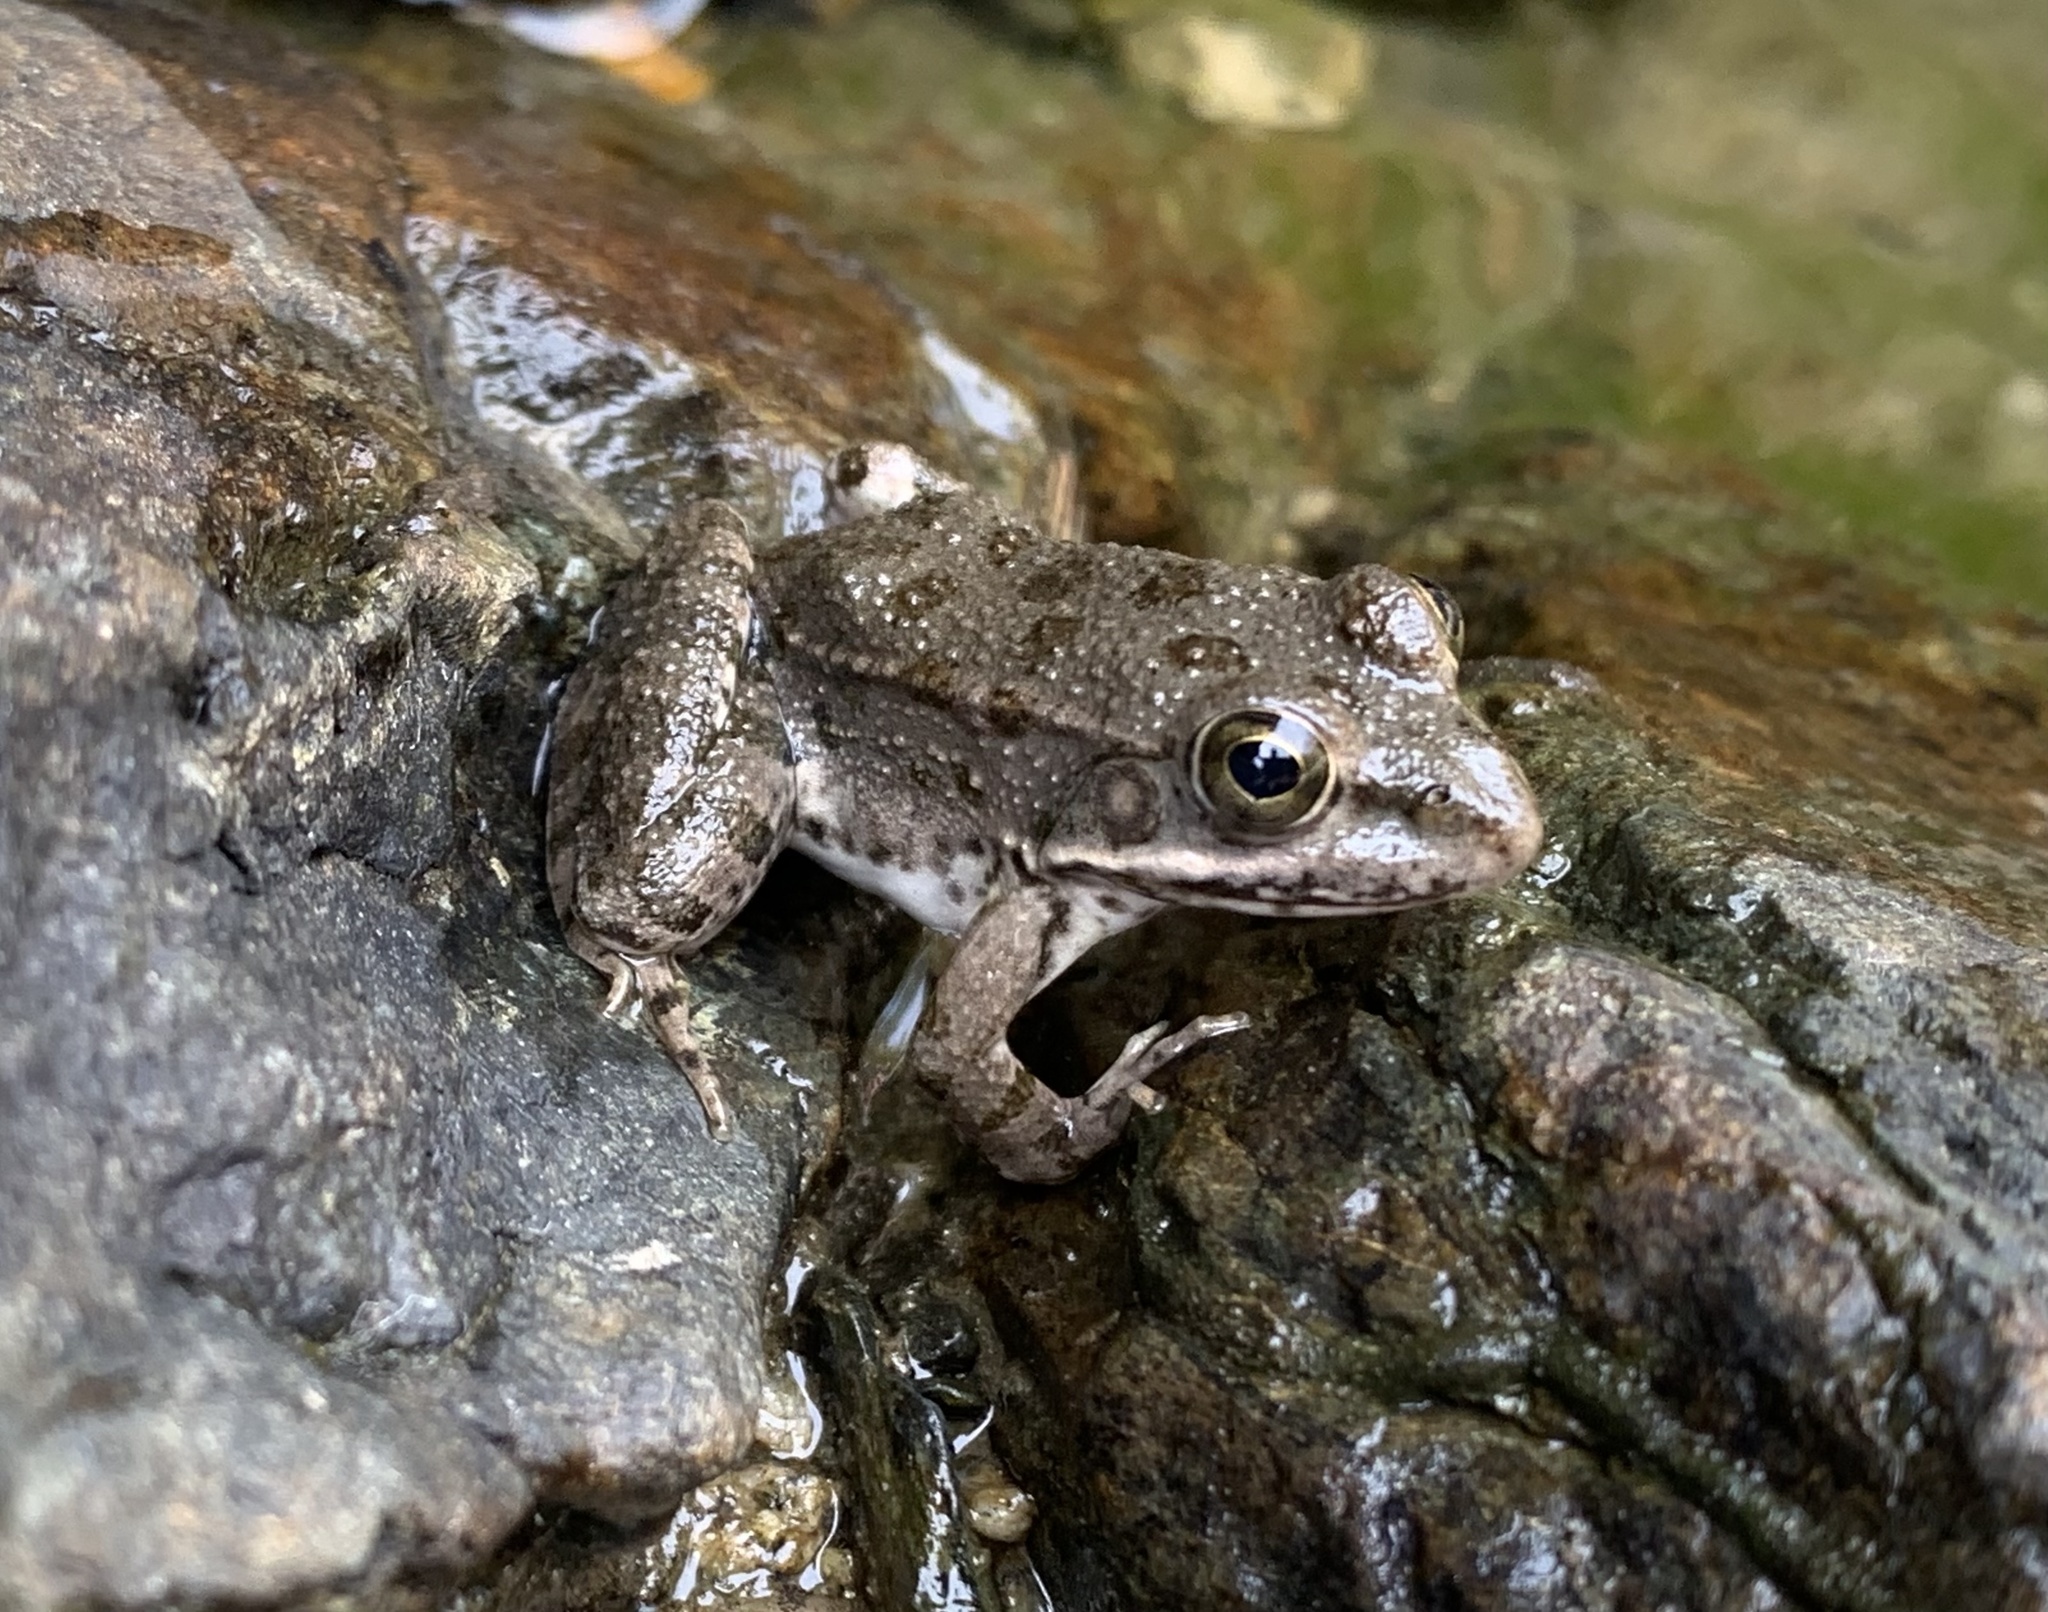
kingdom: Animalia
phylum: Chordata
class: Amphibia
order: Anura
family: Ranidae
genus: Pelophylax
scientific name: Pelophylax ridibundus
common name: Marsh frog
